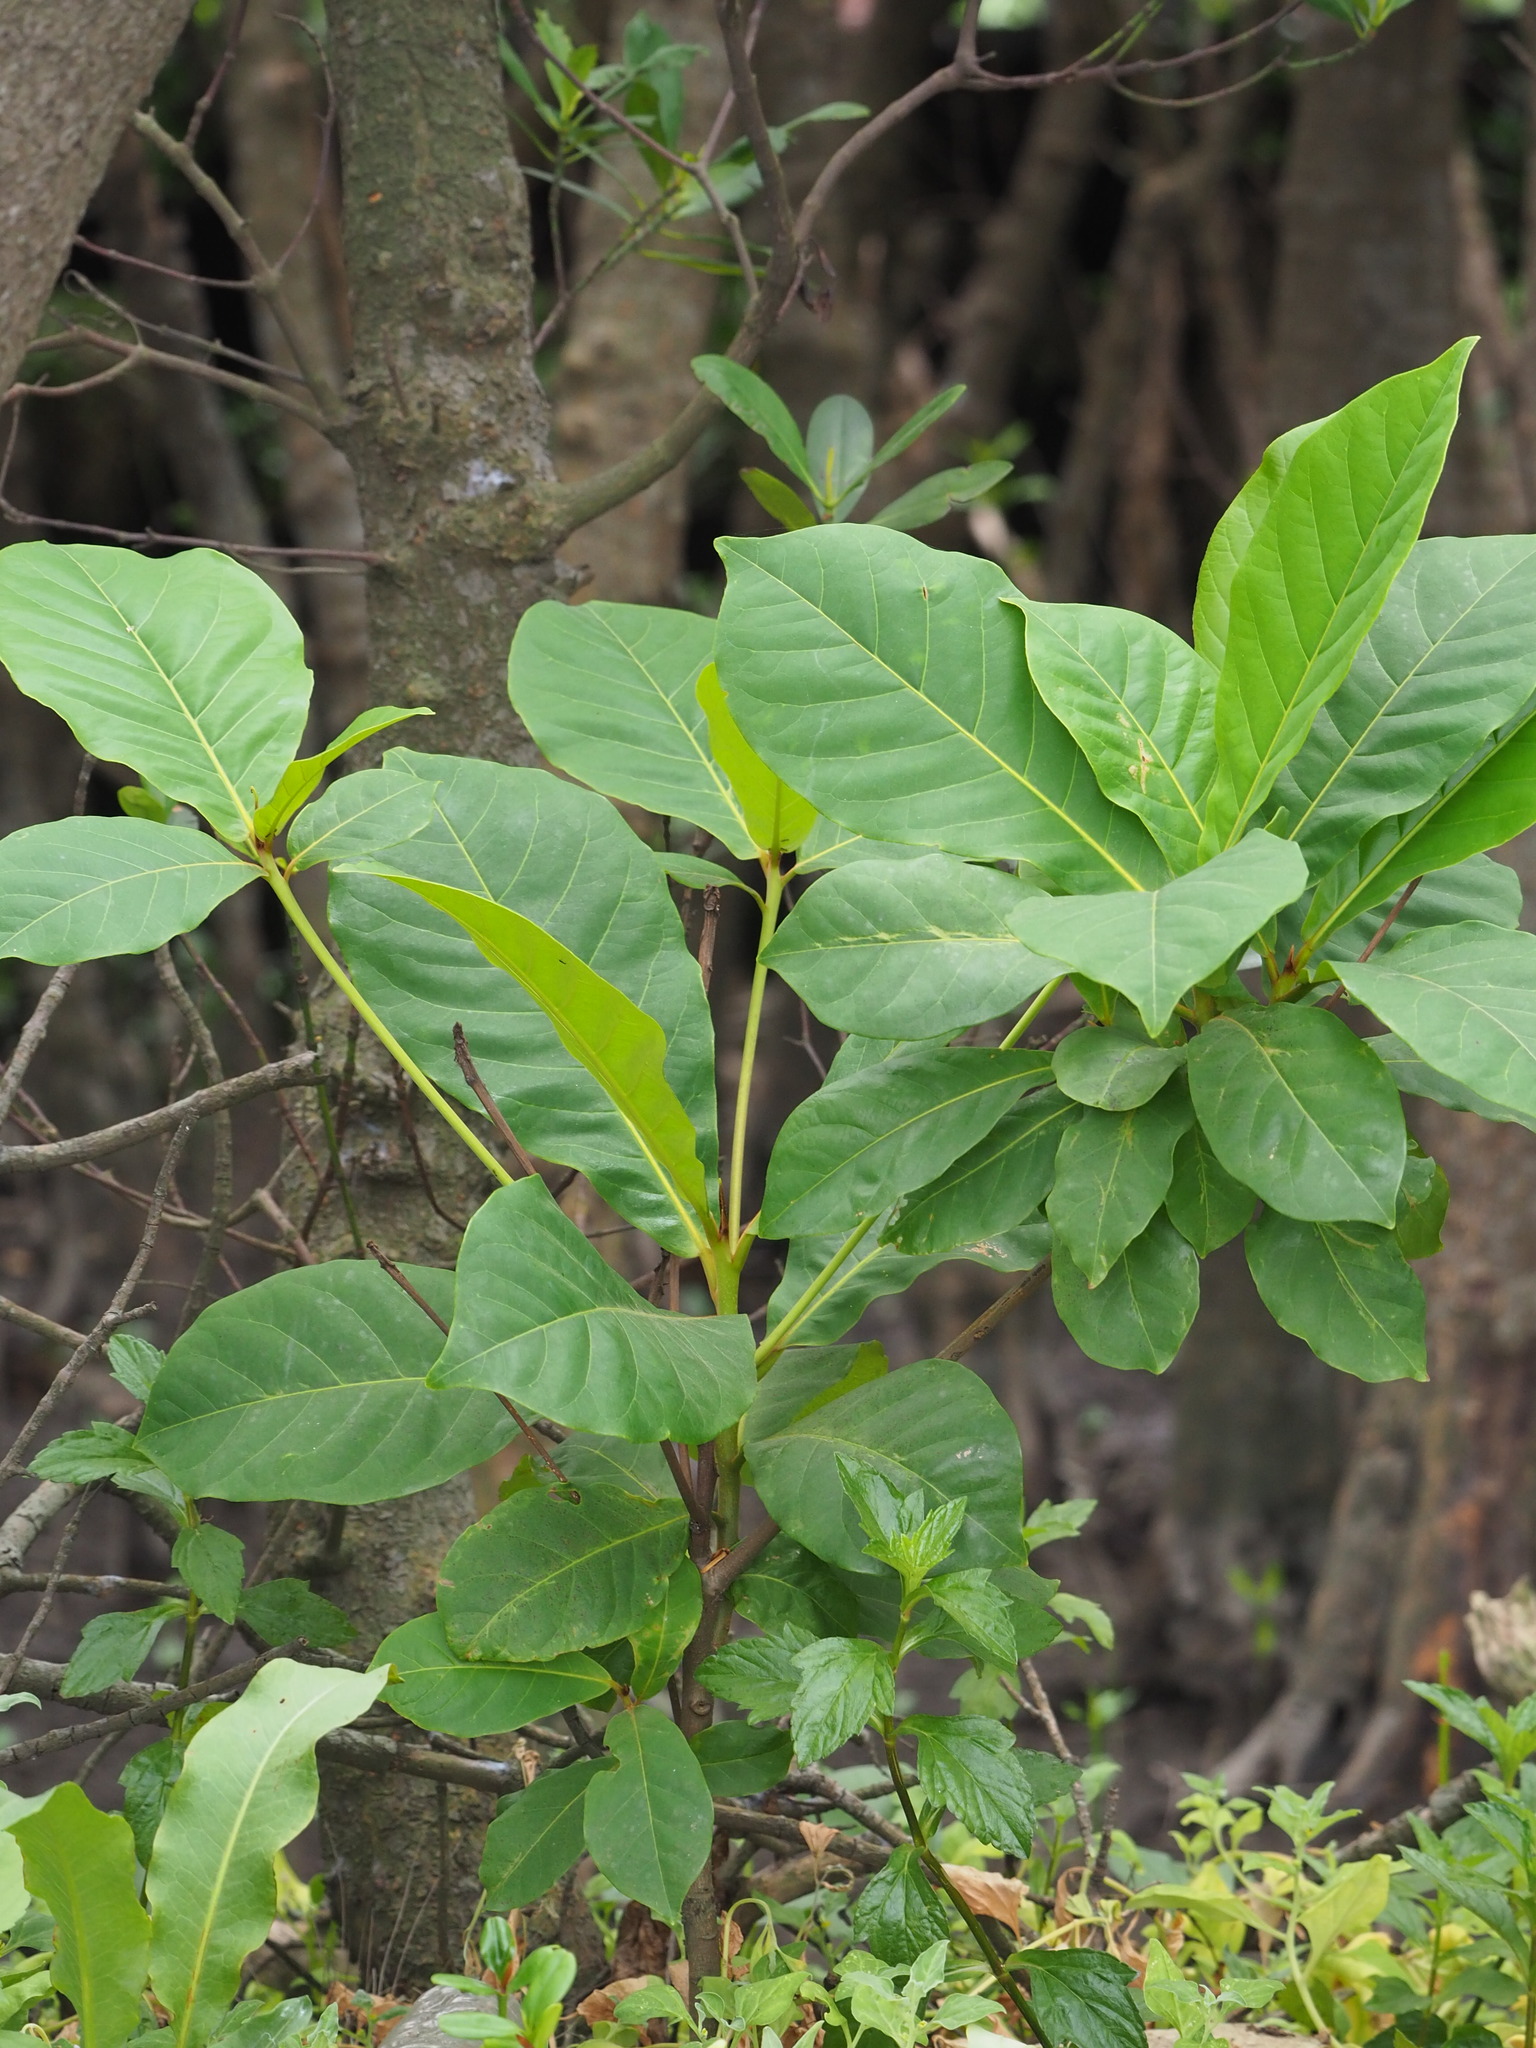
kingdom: Plantae
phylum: Tracheophyta
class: Magnoliopsida
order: Myrtales
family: Combretaceae
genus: Terminalia
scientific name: Terminalia catappa
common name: Tropical almond
